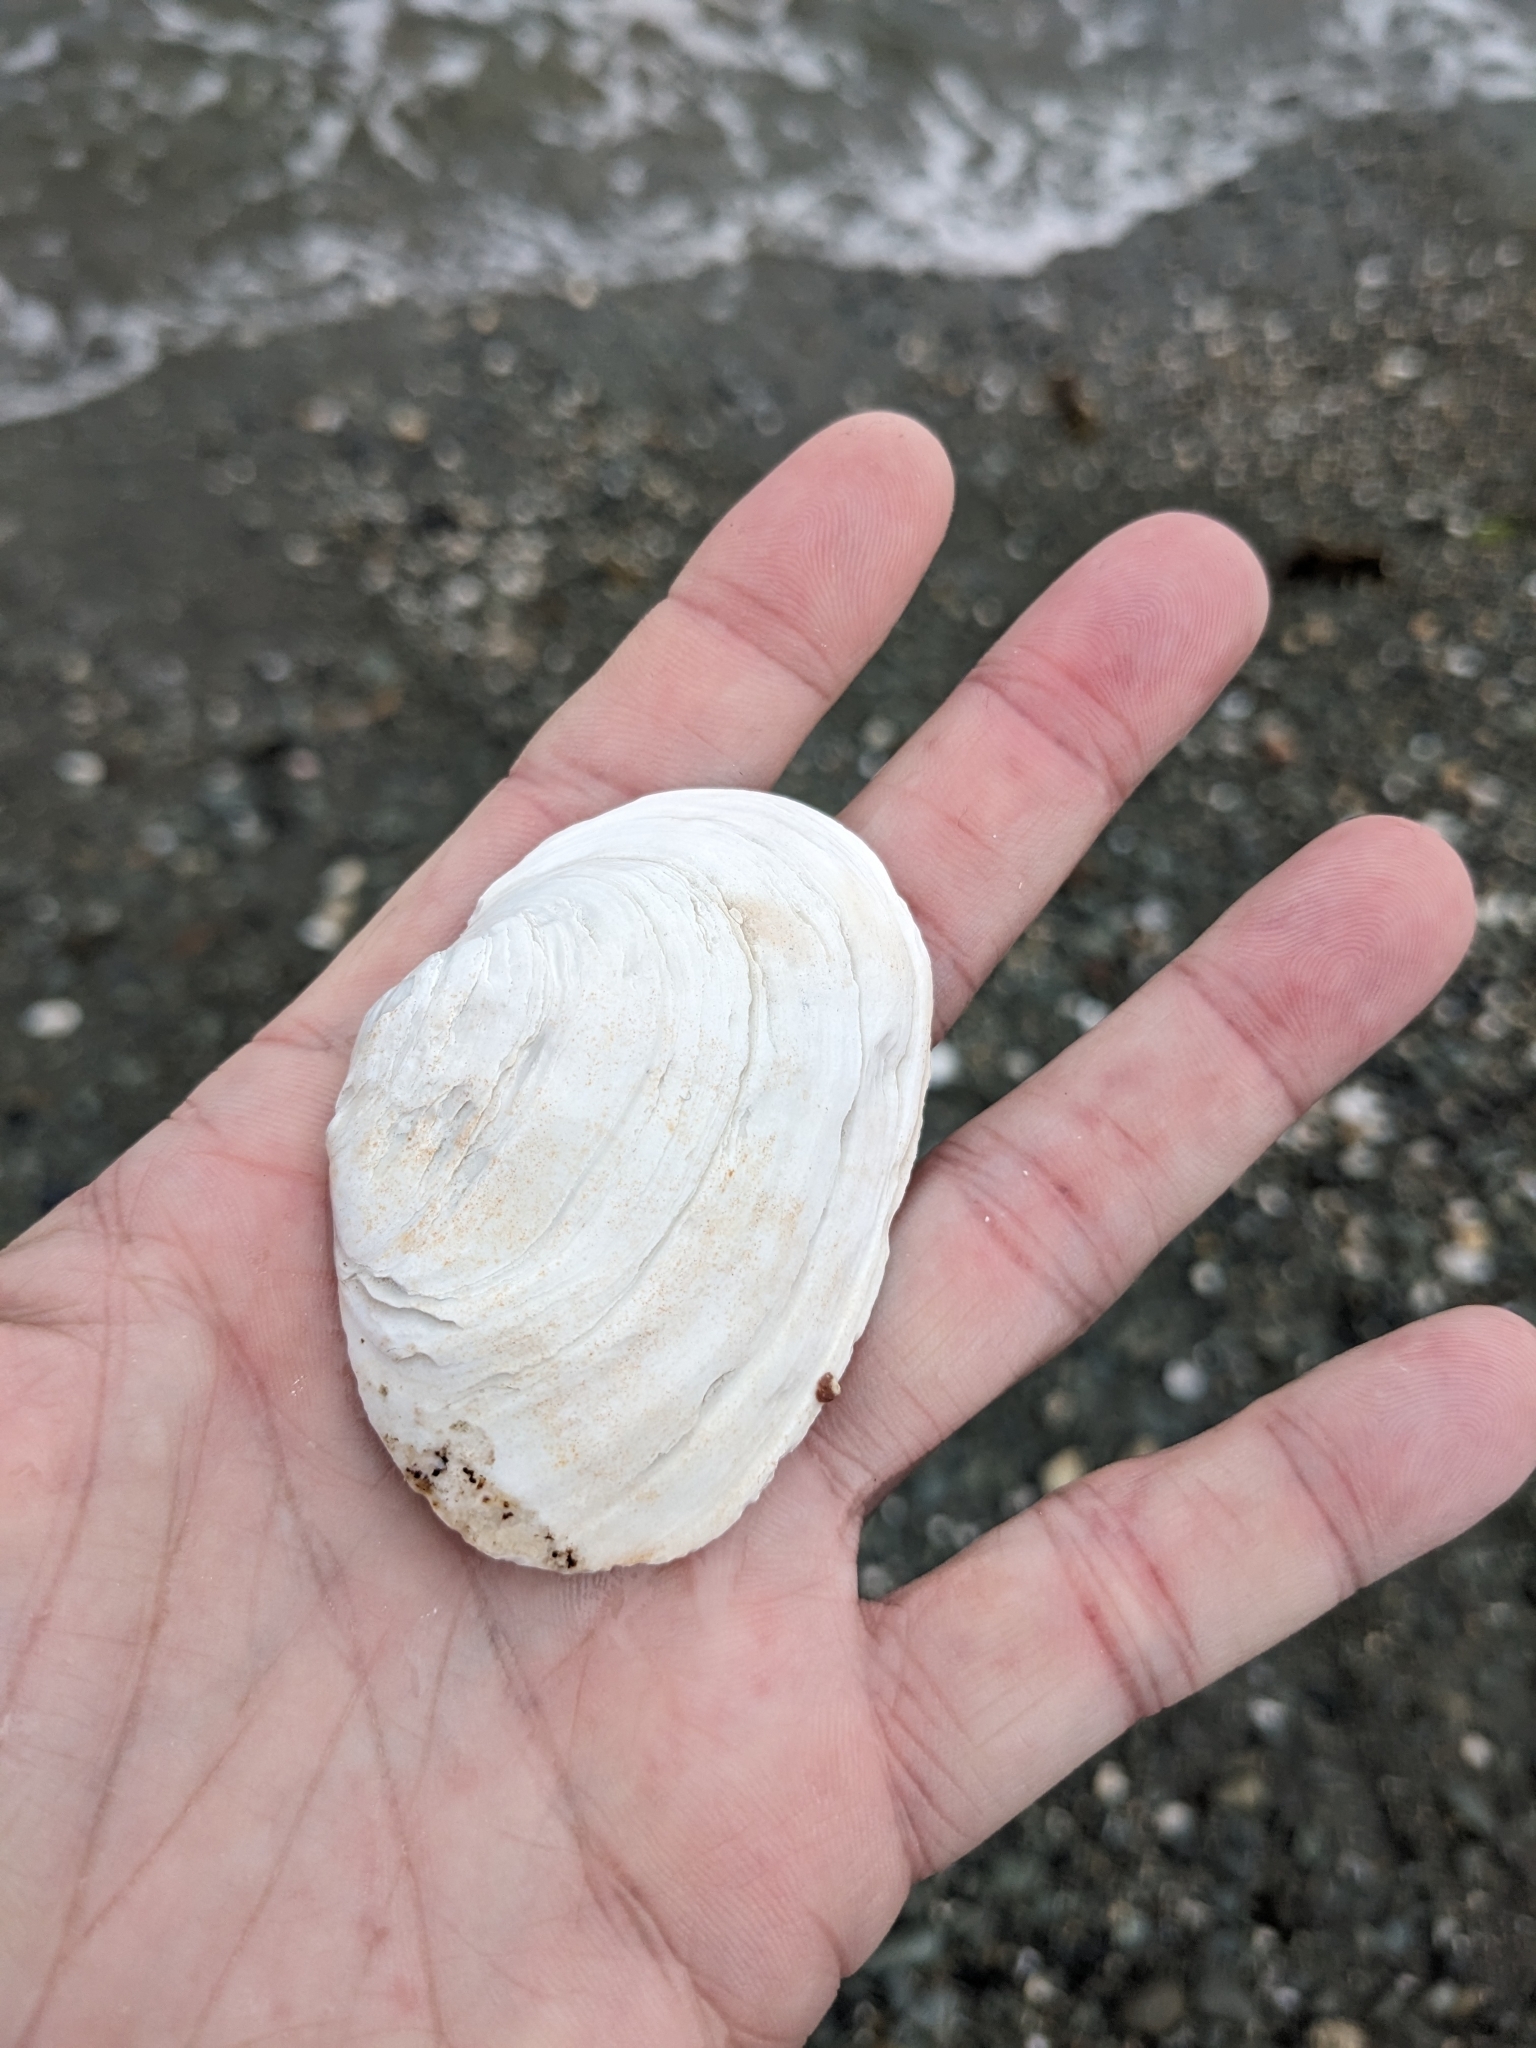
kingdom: Animalia
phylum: Mollusca
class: Bivalvia
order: Myida
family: Myidae
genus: Mya
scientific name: Mya arenaria
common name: Soft-shelled clam
